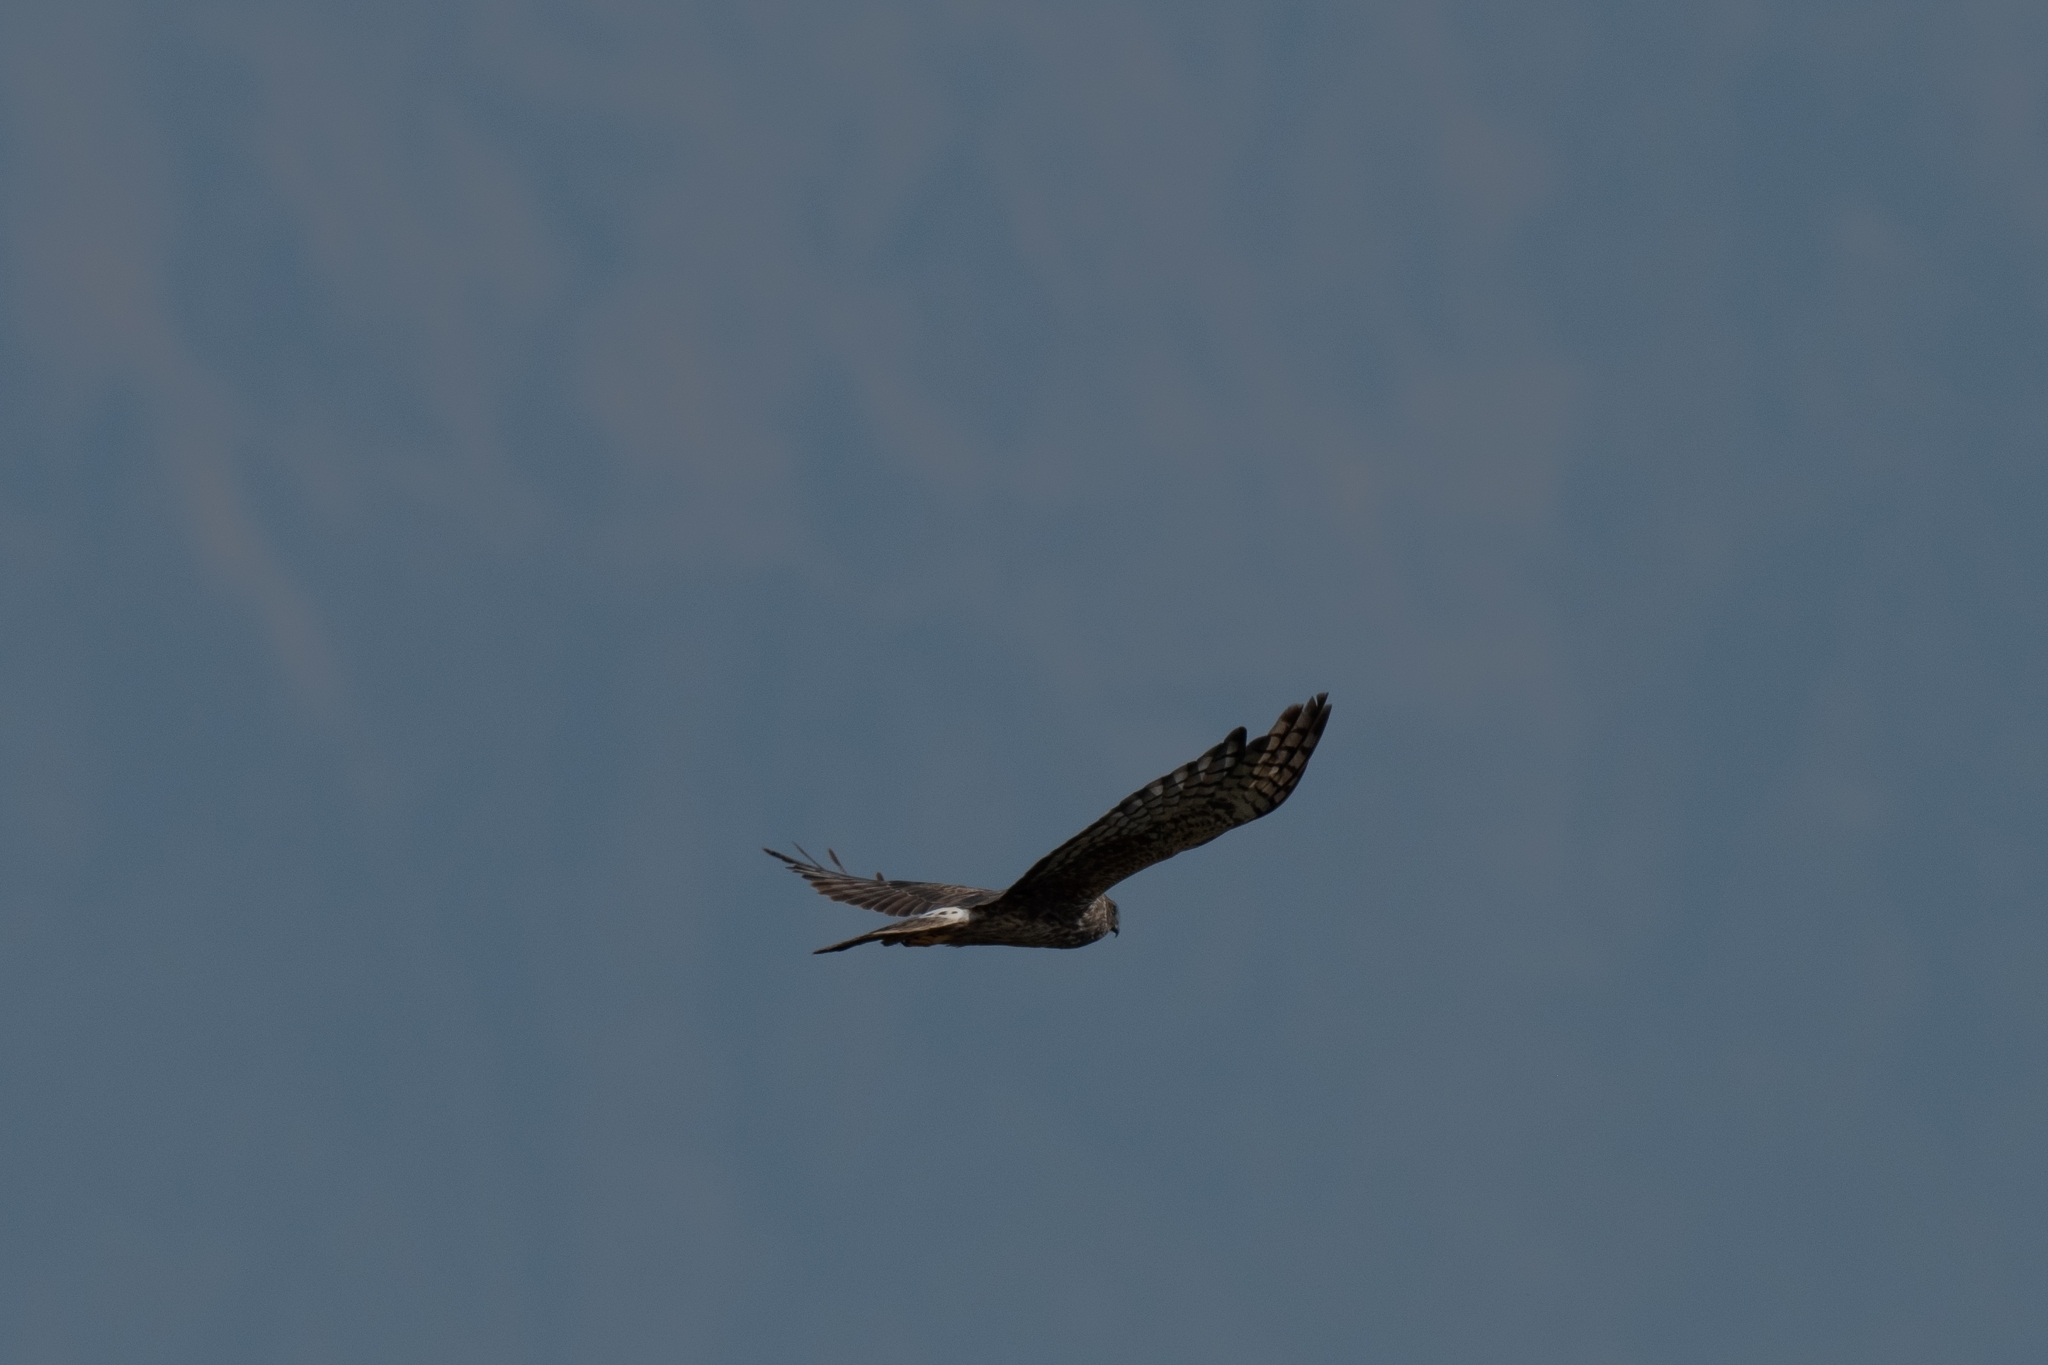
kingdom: Animalia
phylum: Chordata
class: Aves
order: Accipitriformes
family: Accipitridae
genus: Circus
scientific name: Circus cyaneus
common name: Hen harrier
